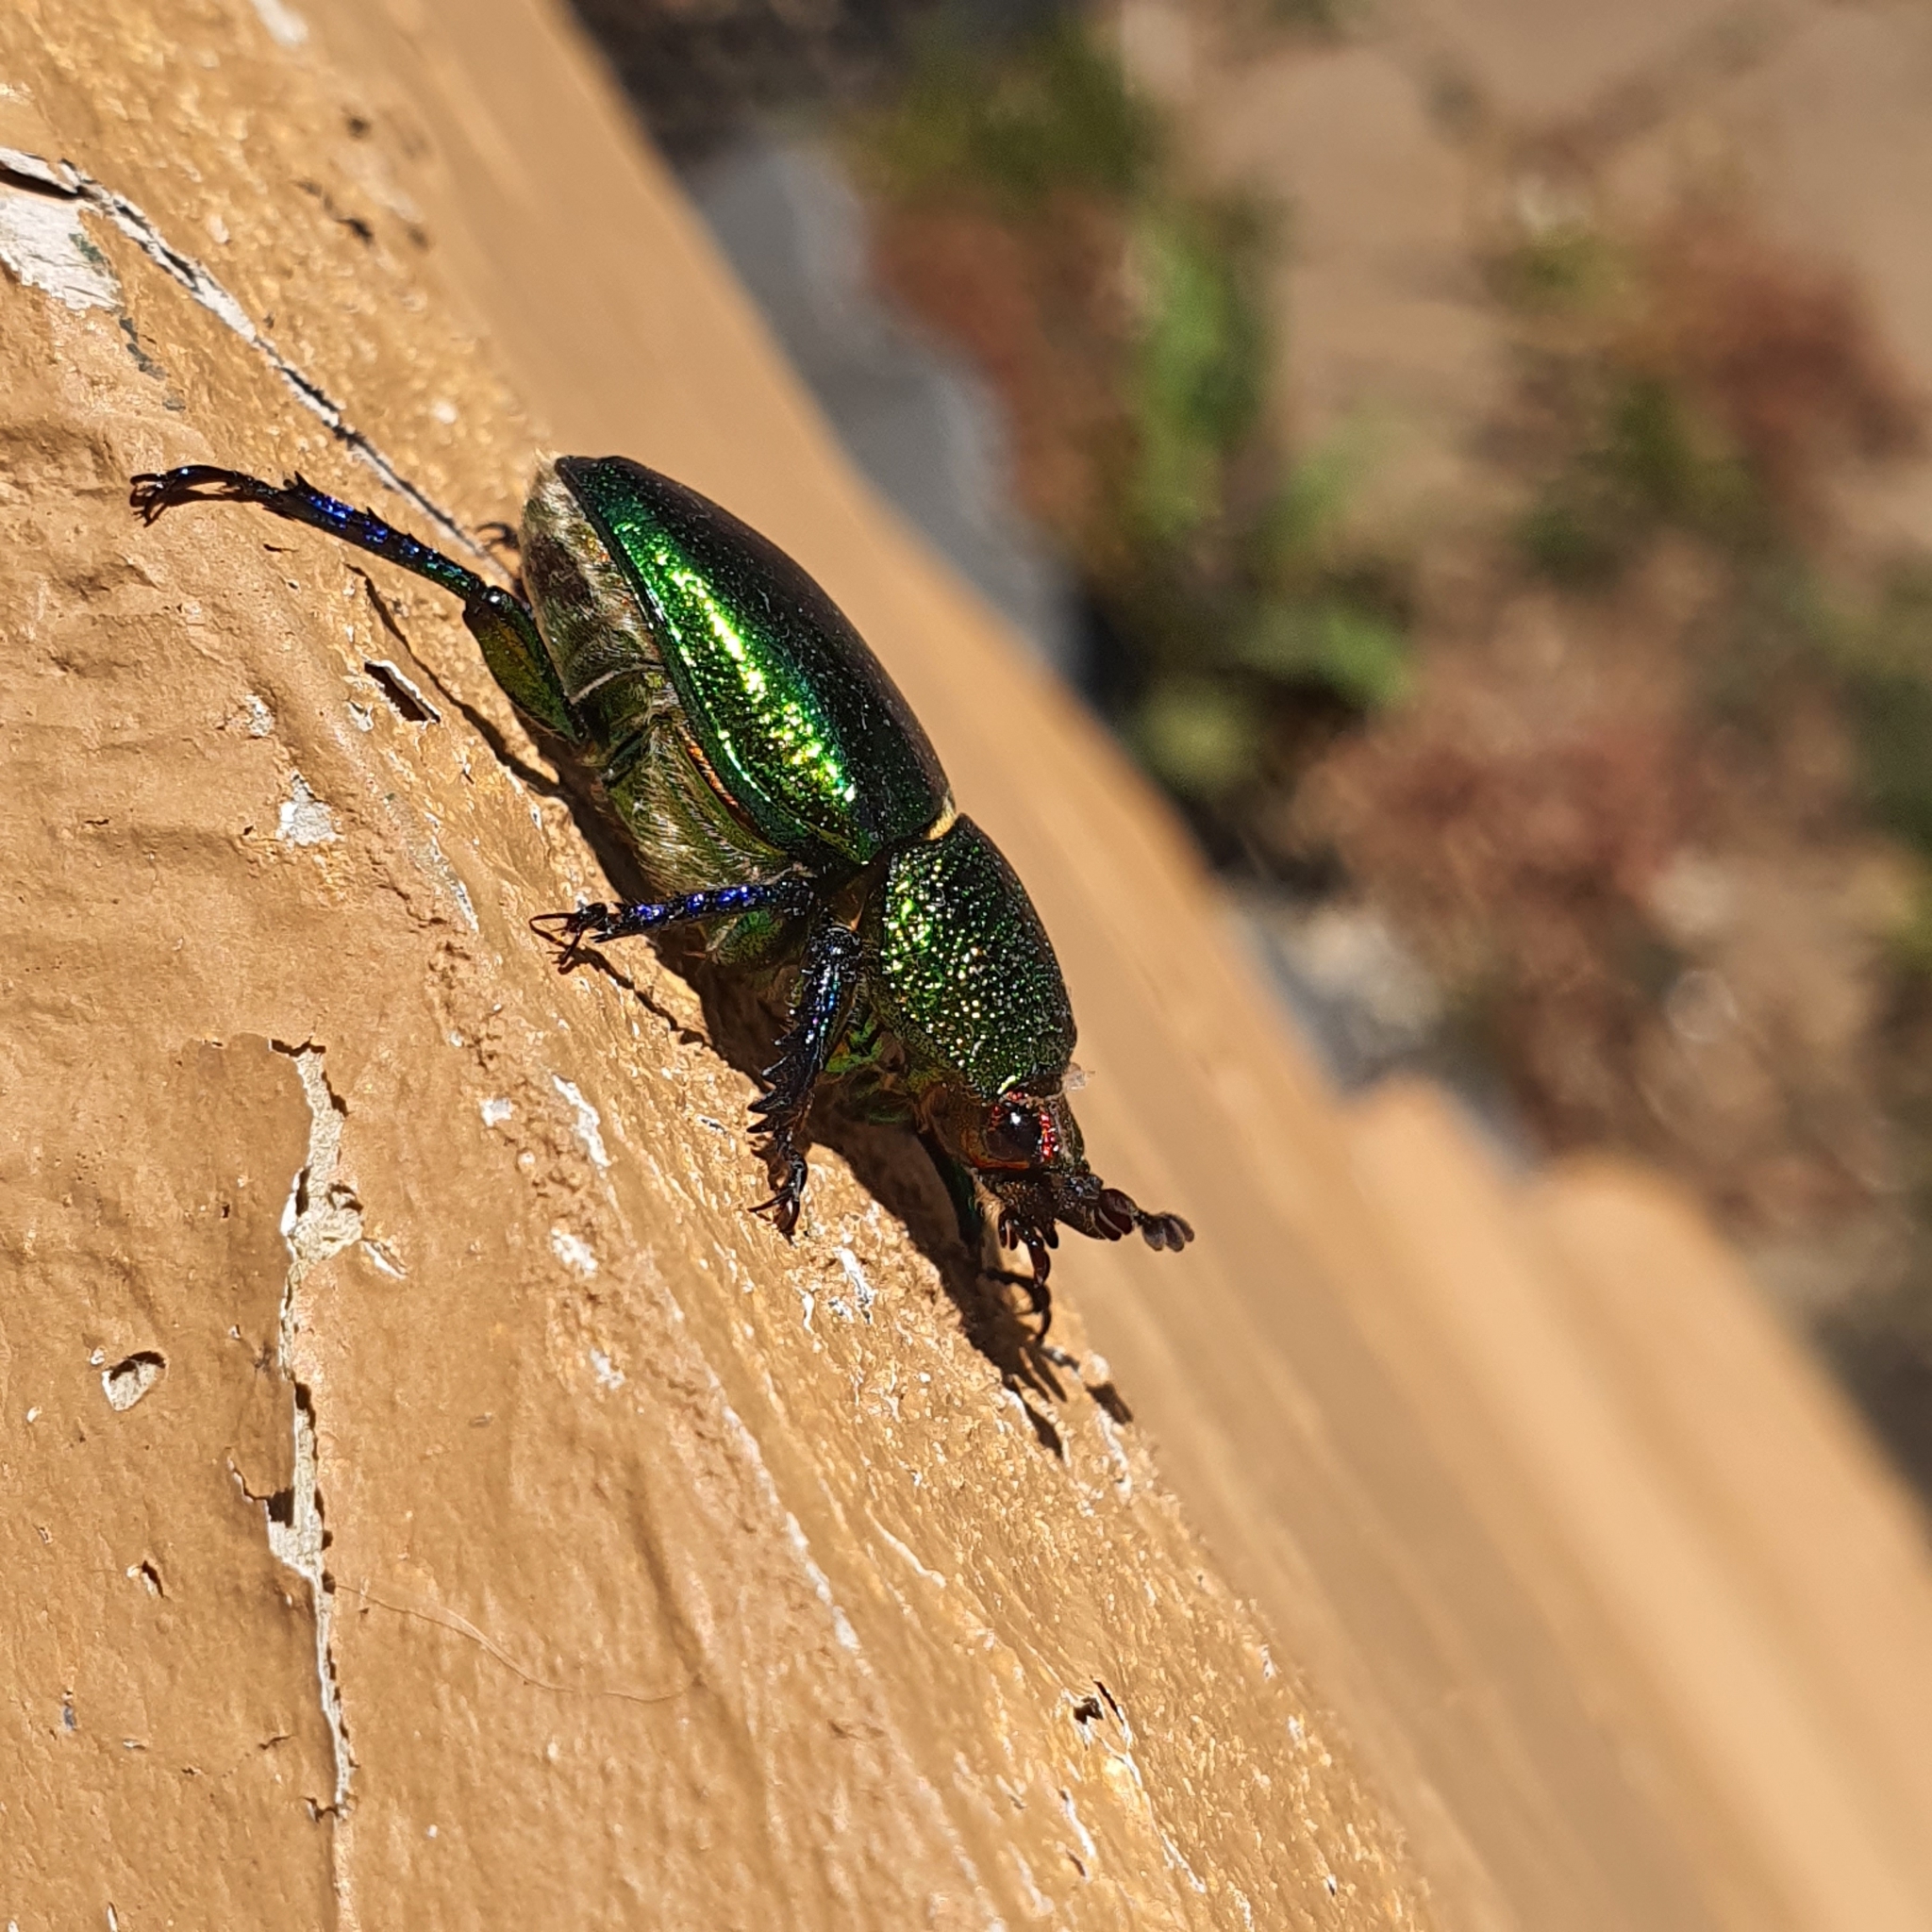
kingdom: Animalia
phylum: Arthropoda
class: Insecta
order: Coleoptera
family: Lucanidae
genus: Lamprima
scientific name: Lamprima aurata
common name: Golden stag beetle
